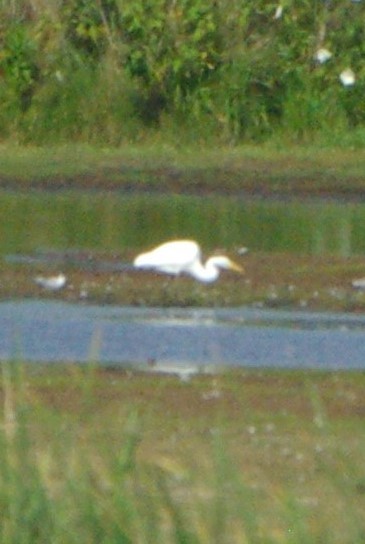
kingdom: Animalia
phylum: Chordata
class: Aves
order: Pelecaniformes
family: Ardeidae
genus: Ardea
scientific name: Ardea alba
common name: Great egret
